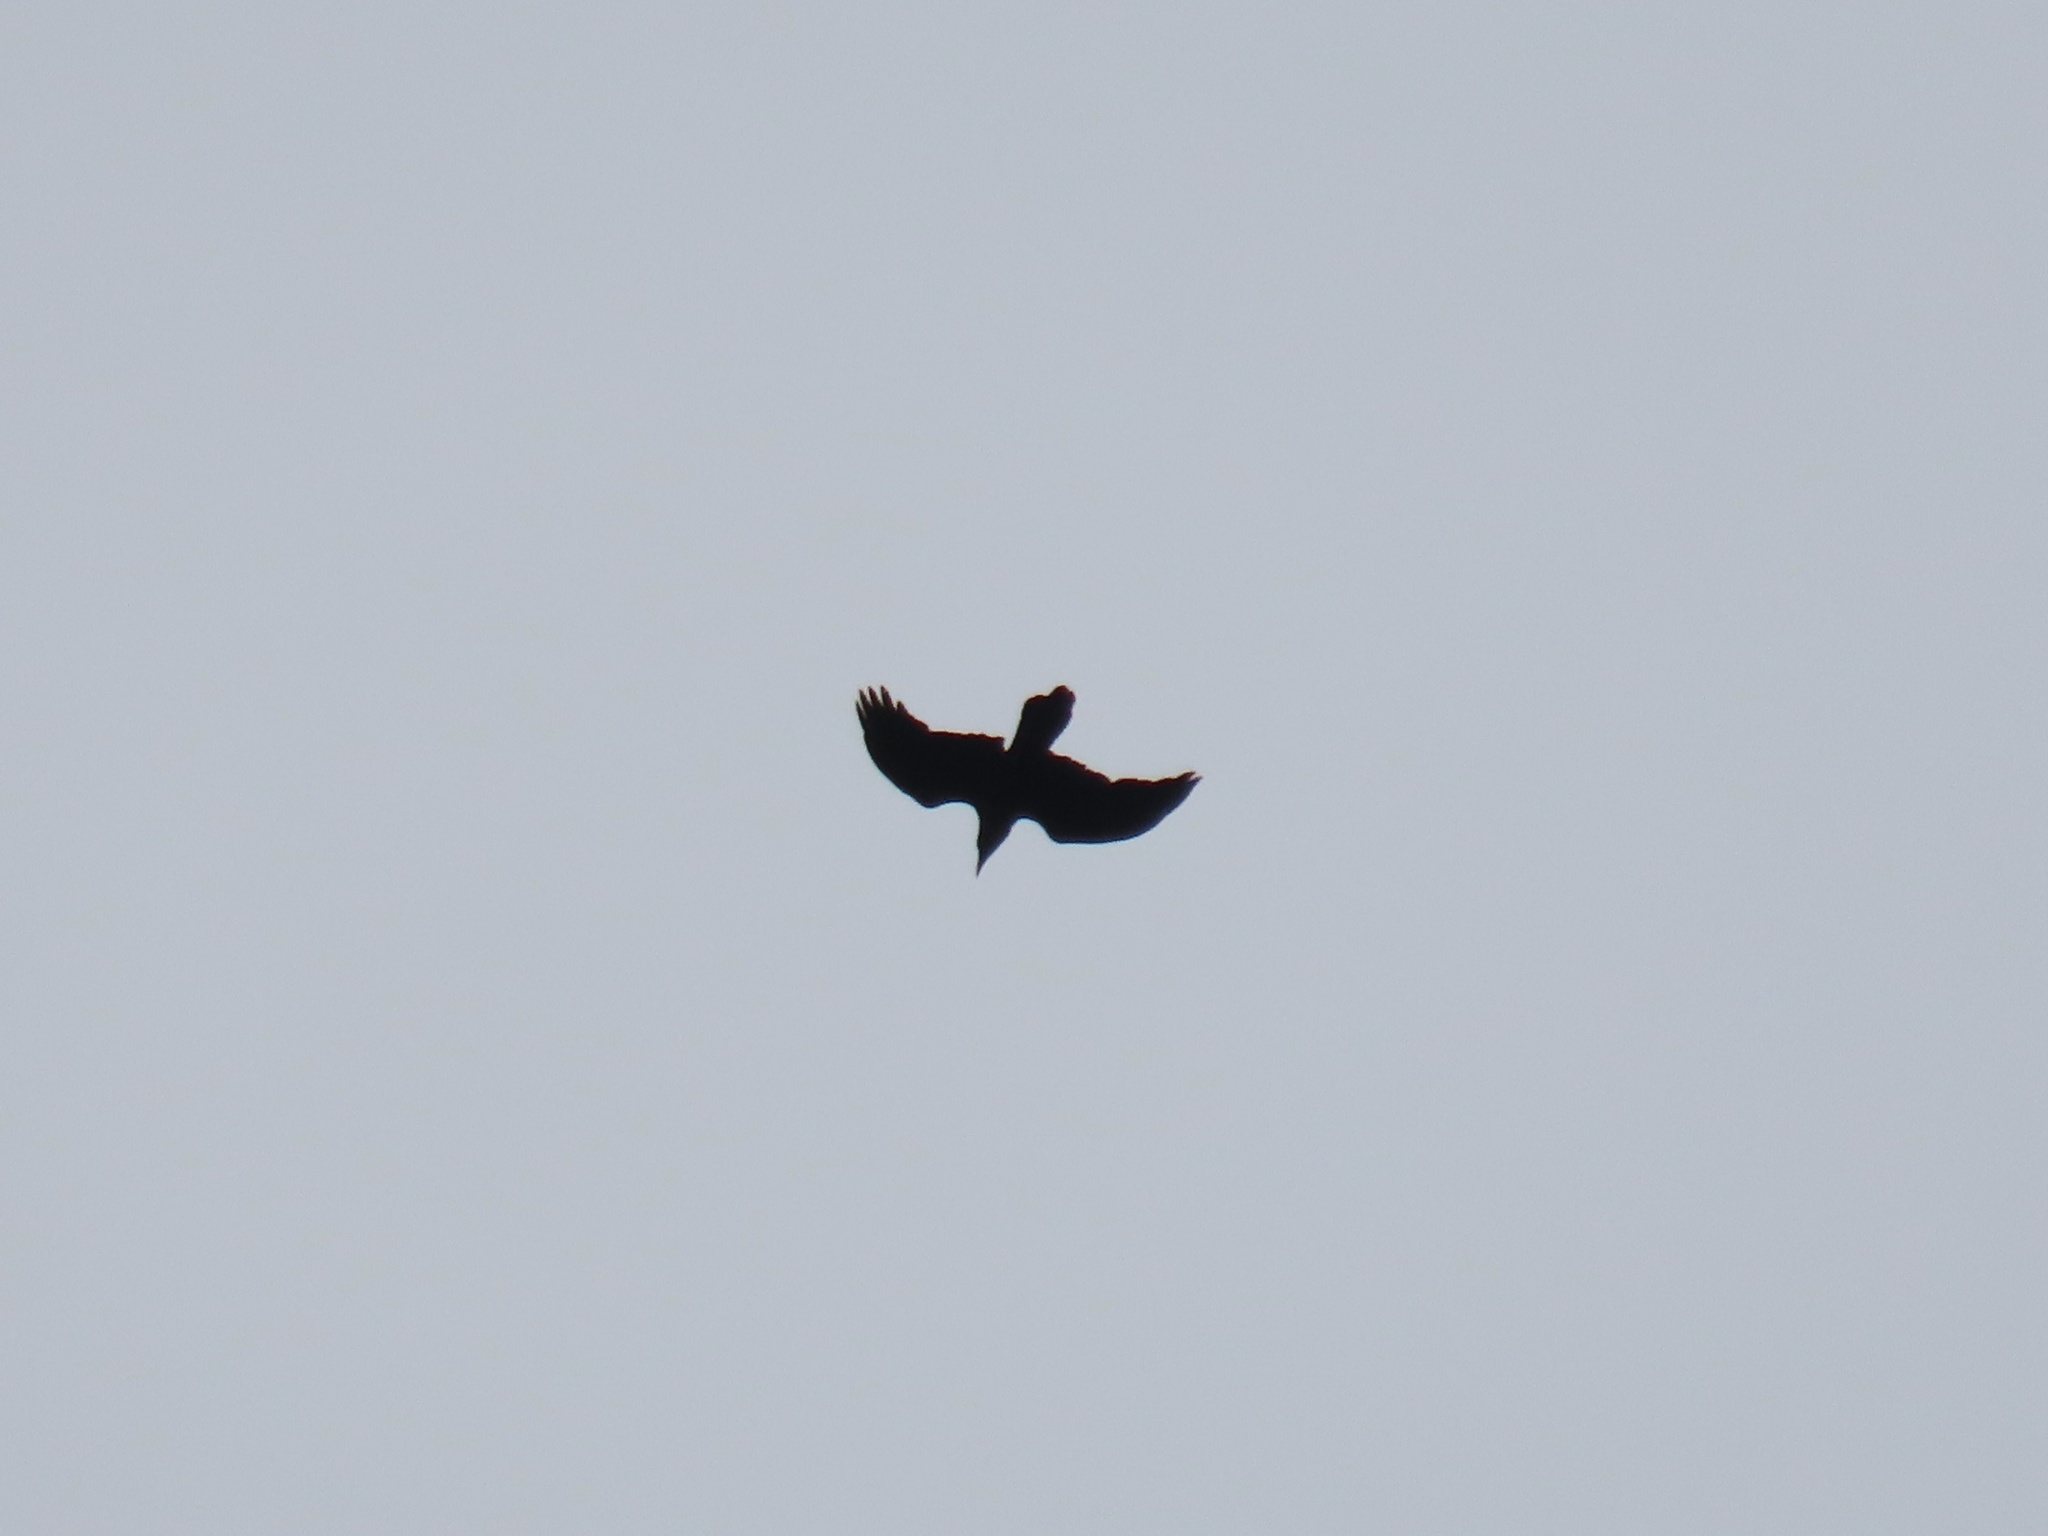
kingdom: Animalia
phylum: Chordata
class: Aves
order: Passeriformes
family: Corvidae
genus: Corvus
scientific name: Corvus corax
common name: Common raven
